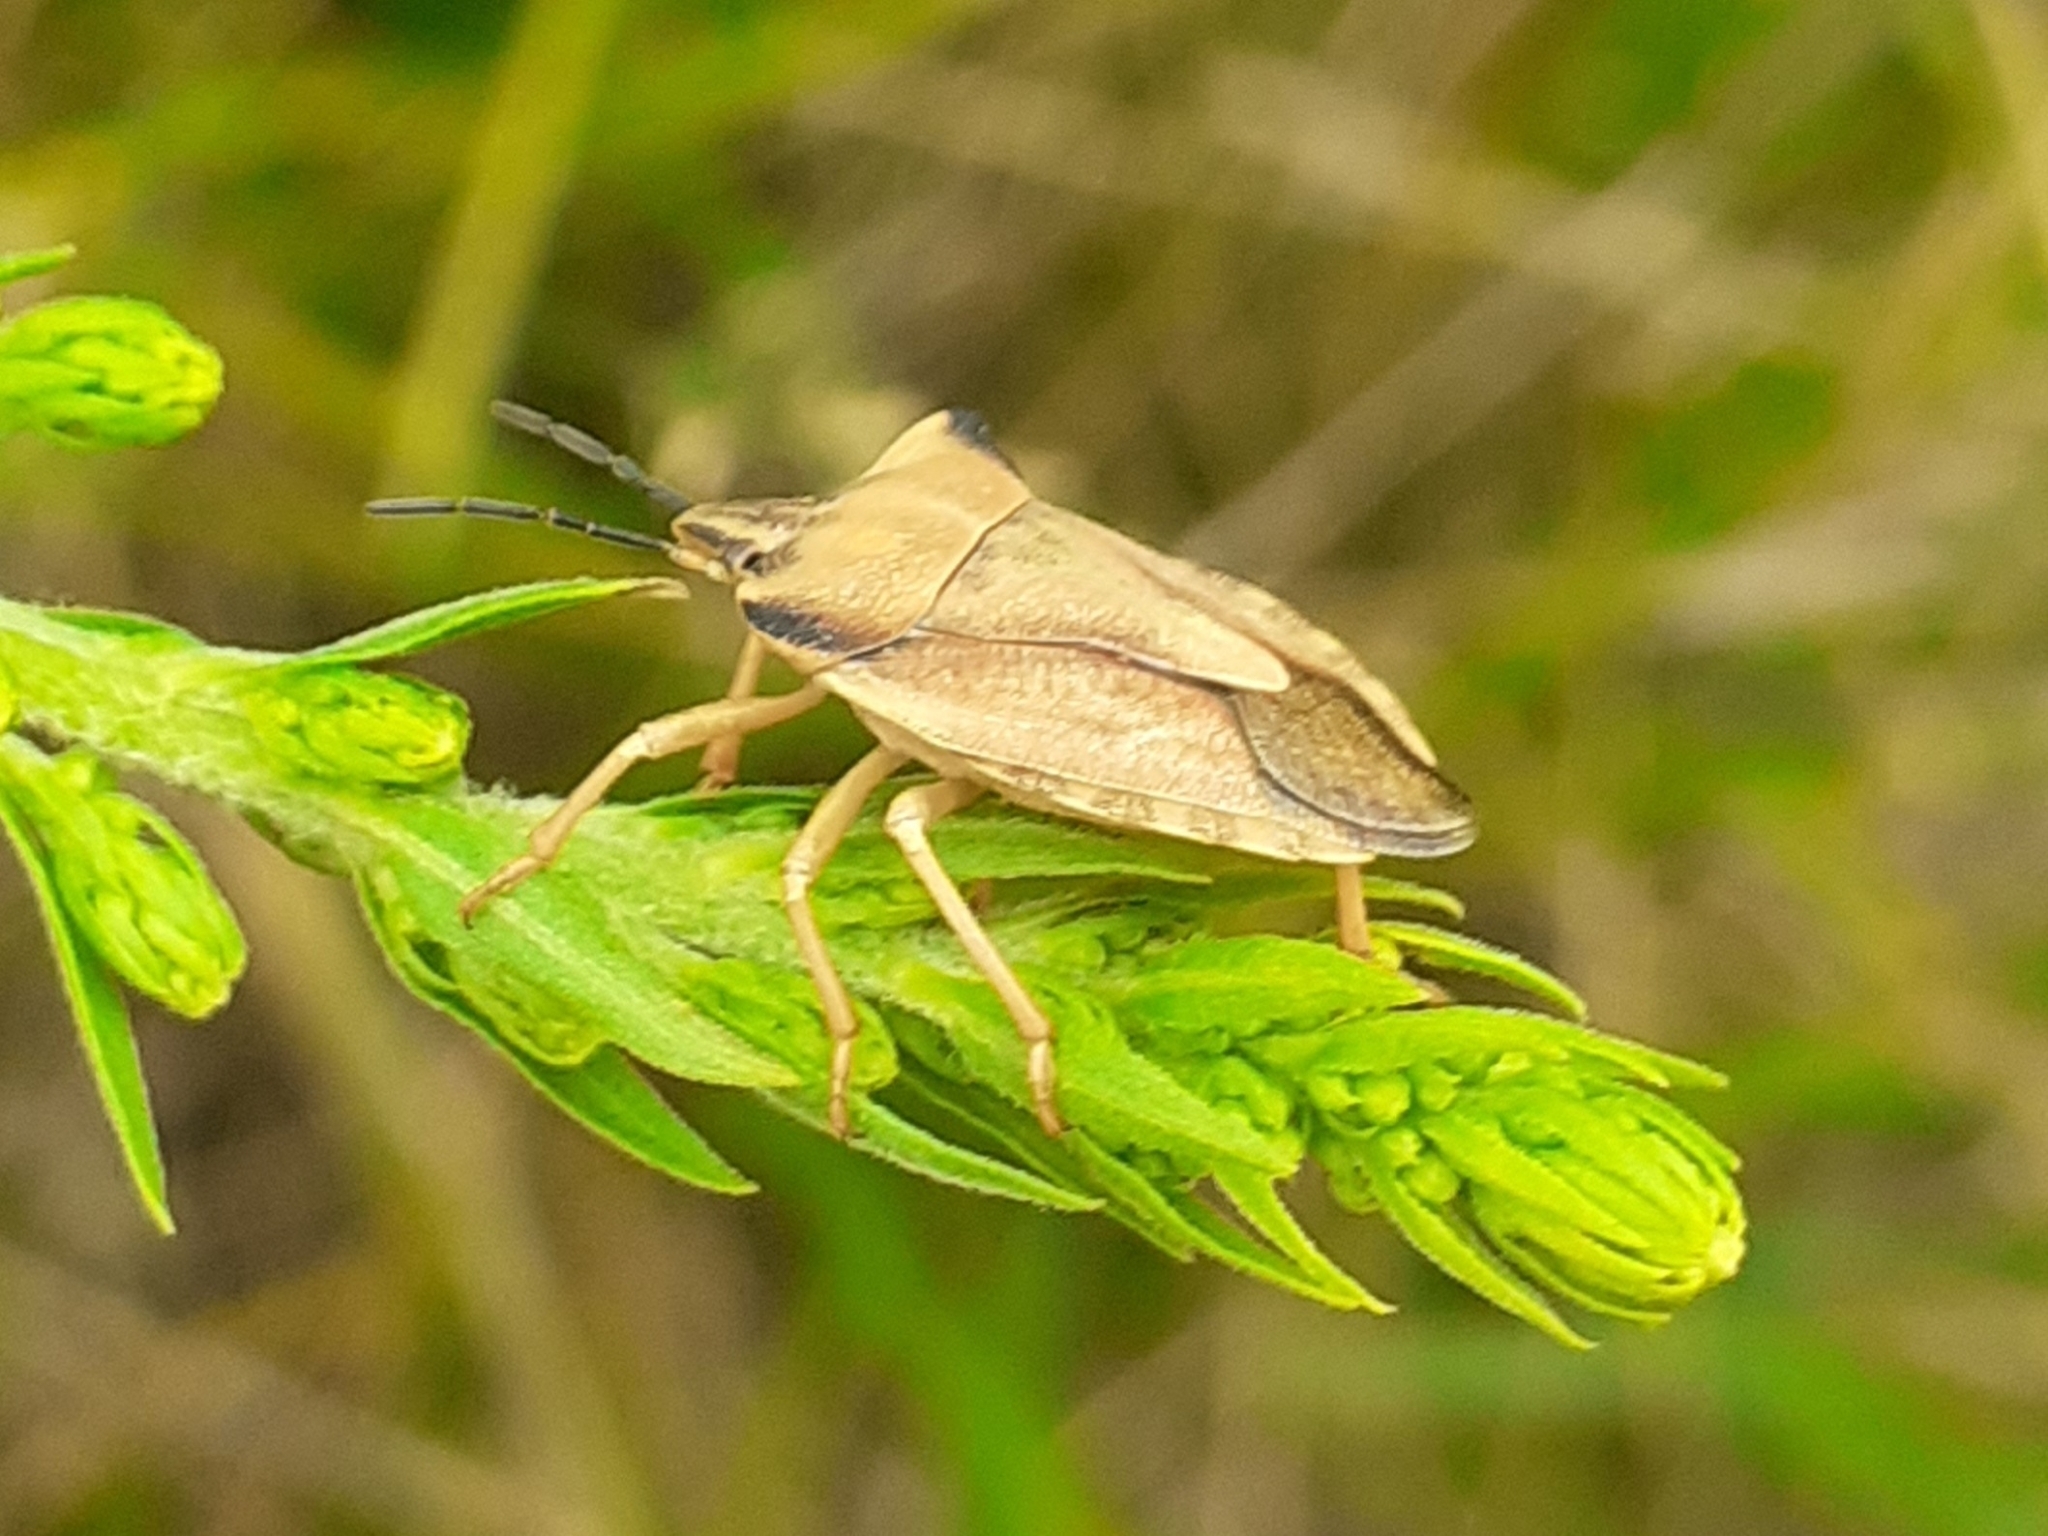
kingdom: Animalia
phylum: Arthropoda
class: Insecta
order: Hemiptera
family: Pentatomidae
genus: Carpocoris
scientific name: Carpocoris fuscispinus
